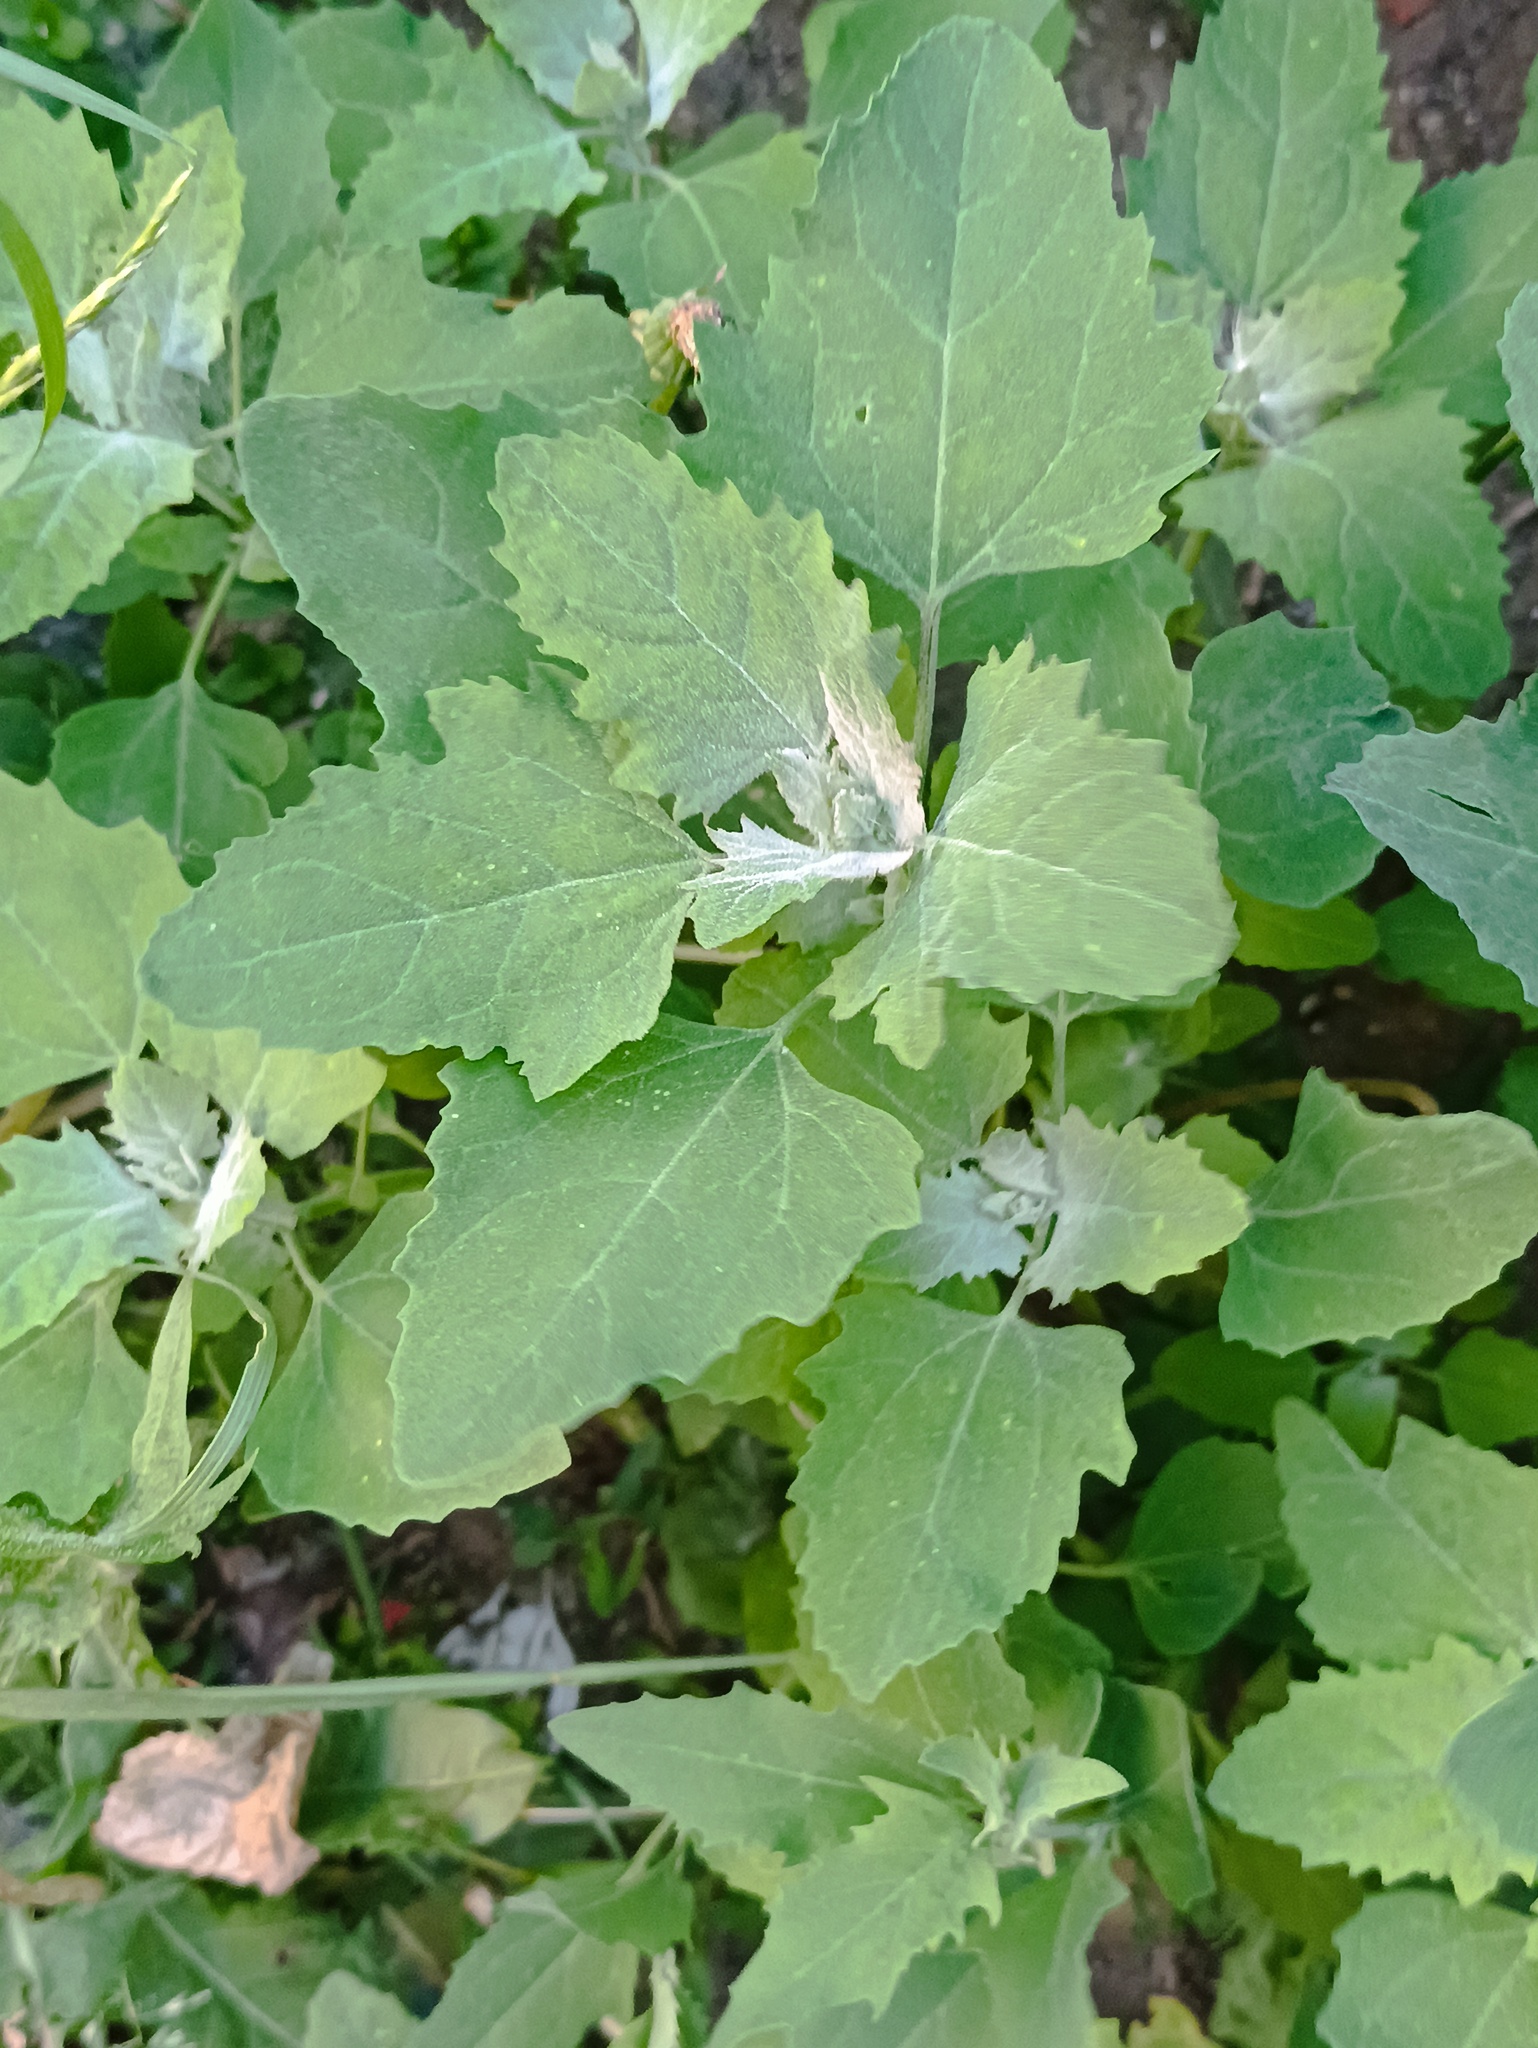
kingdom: Plantae
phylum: Tracheophyta
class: Magnoliopsida
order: Caryophyllales
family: Amaranthaceae
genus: Chenopodium
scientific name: Chenopodium album
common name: Fat-hen
